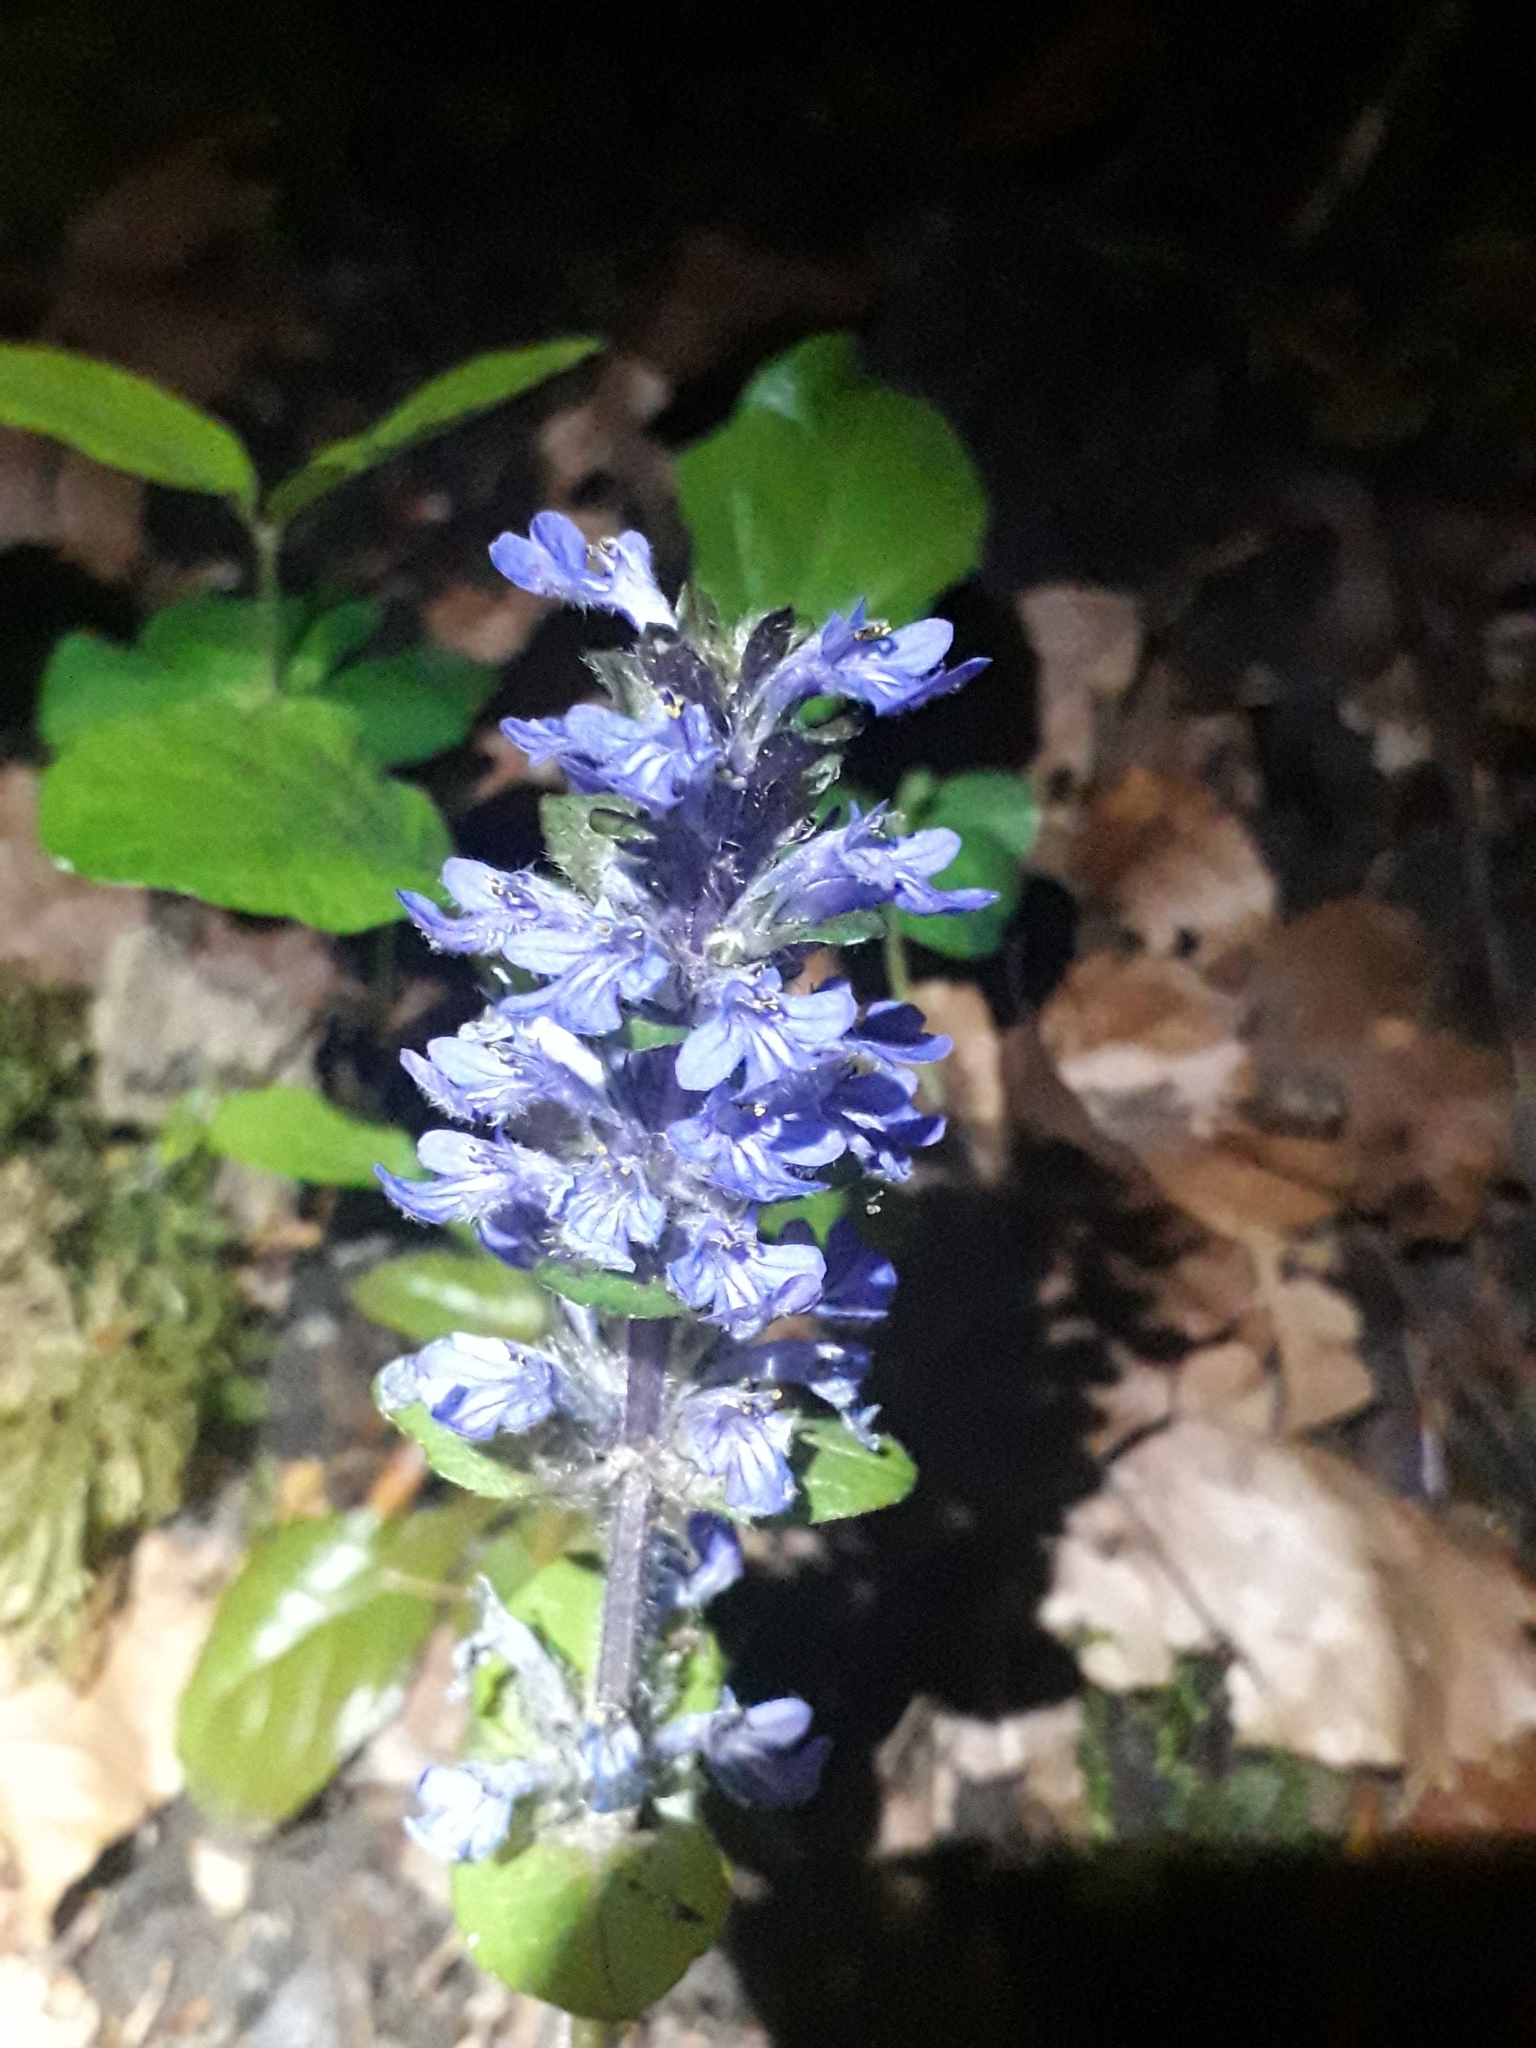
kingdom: Plantae
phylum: Tracheophyta
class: Magnoliopsida
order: Lamiales
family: Lamiaceae
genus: Ajuga
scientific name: Ajuga reptans
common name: Bugle
